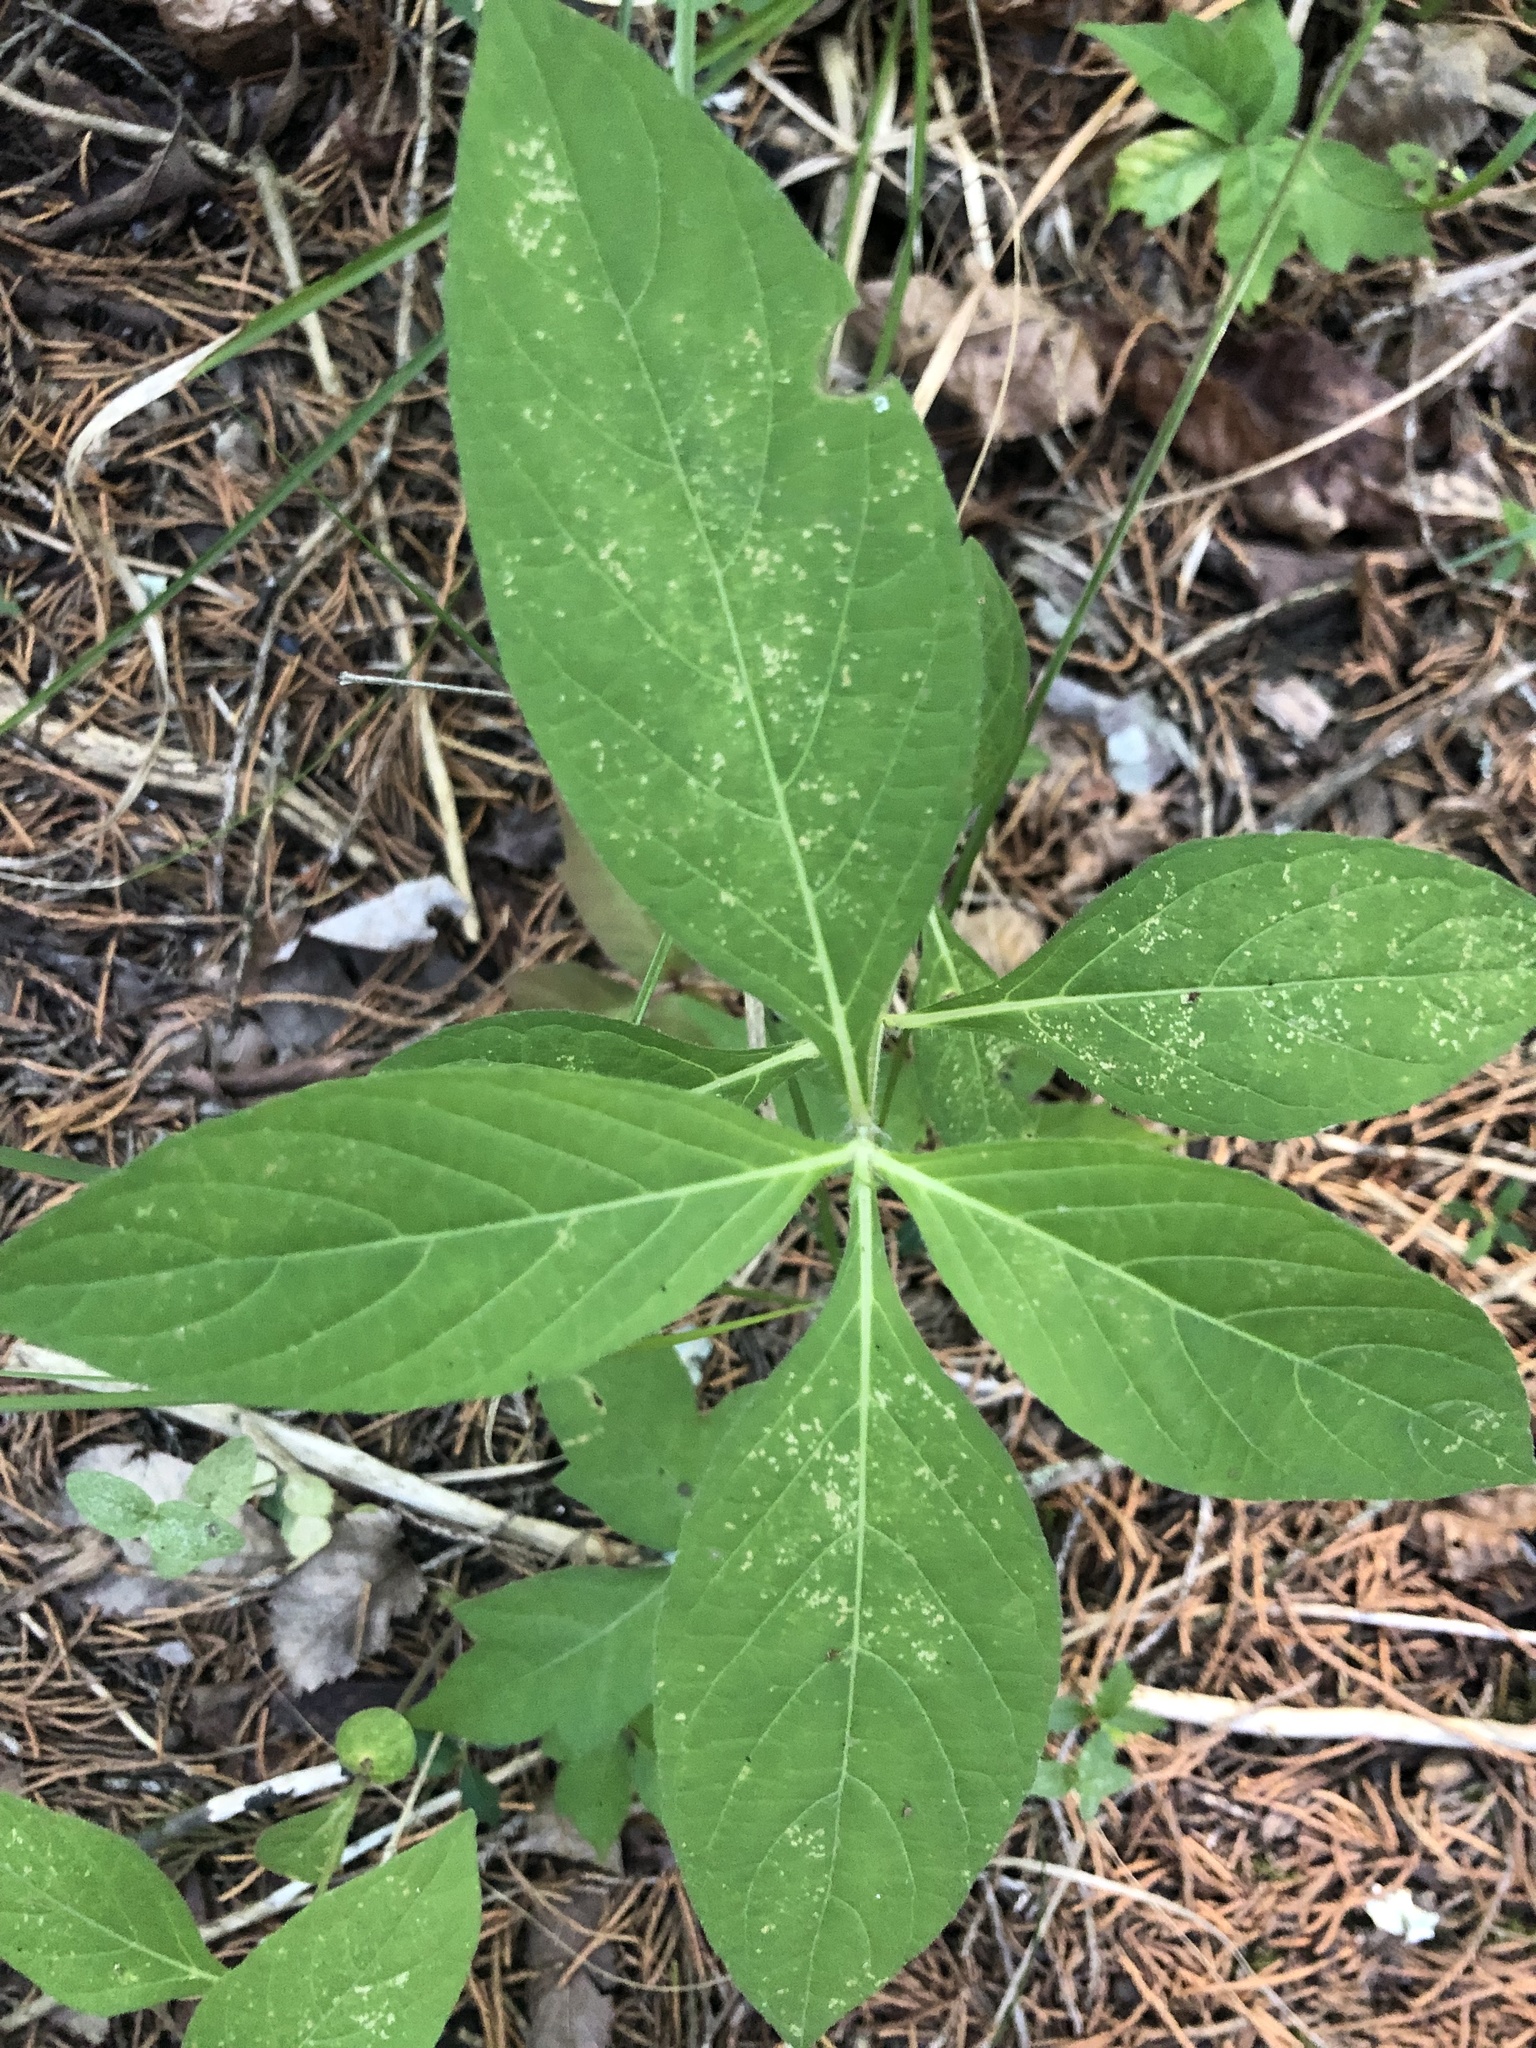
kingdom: Plantae
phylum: Tracheophyta
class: Magnoliopsida
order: Lamiales
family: Acanthaceae
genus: Ruellia
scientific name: Ruellia strepens
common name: Limestone wild petunia
